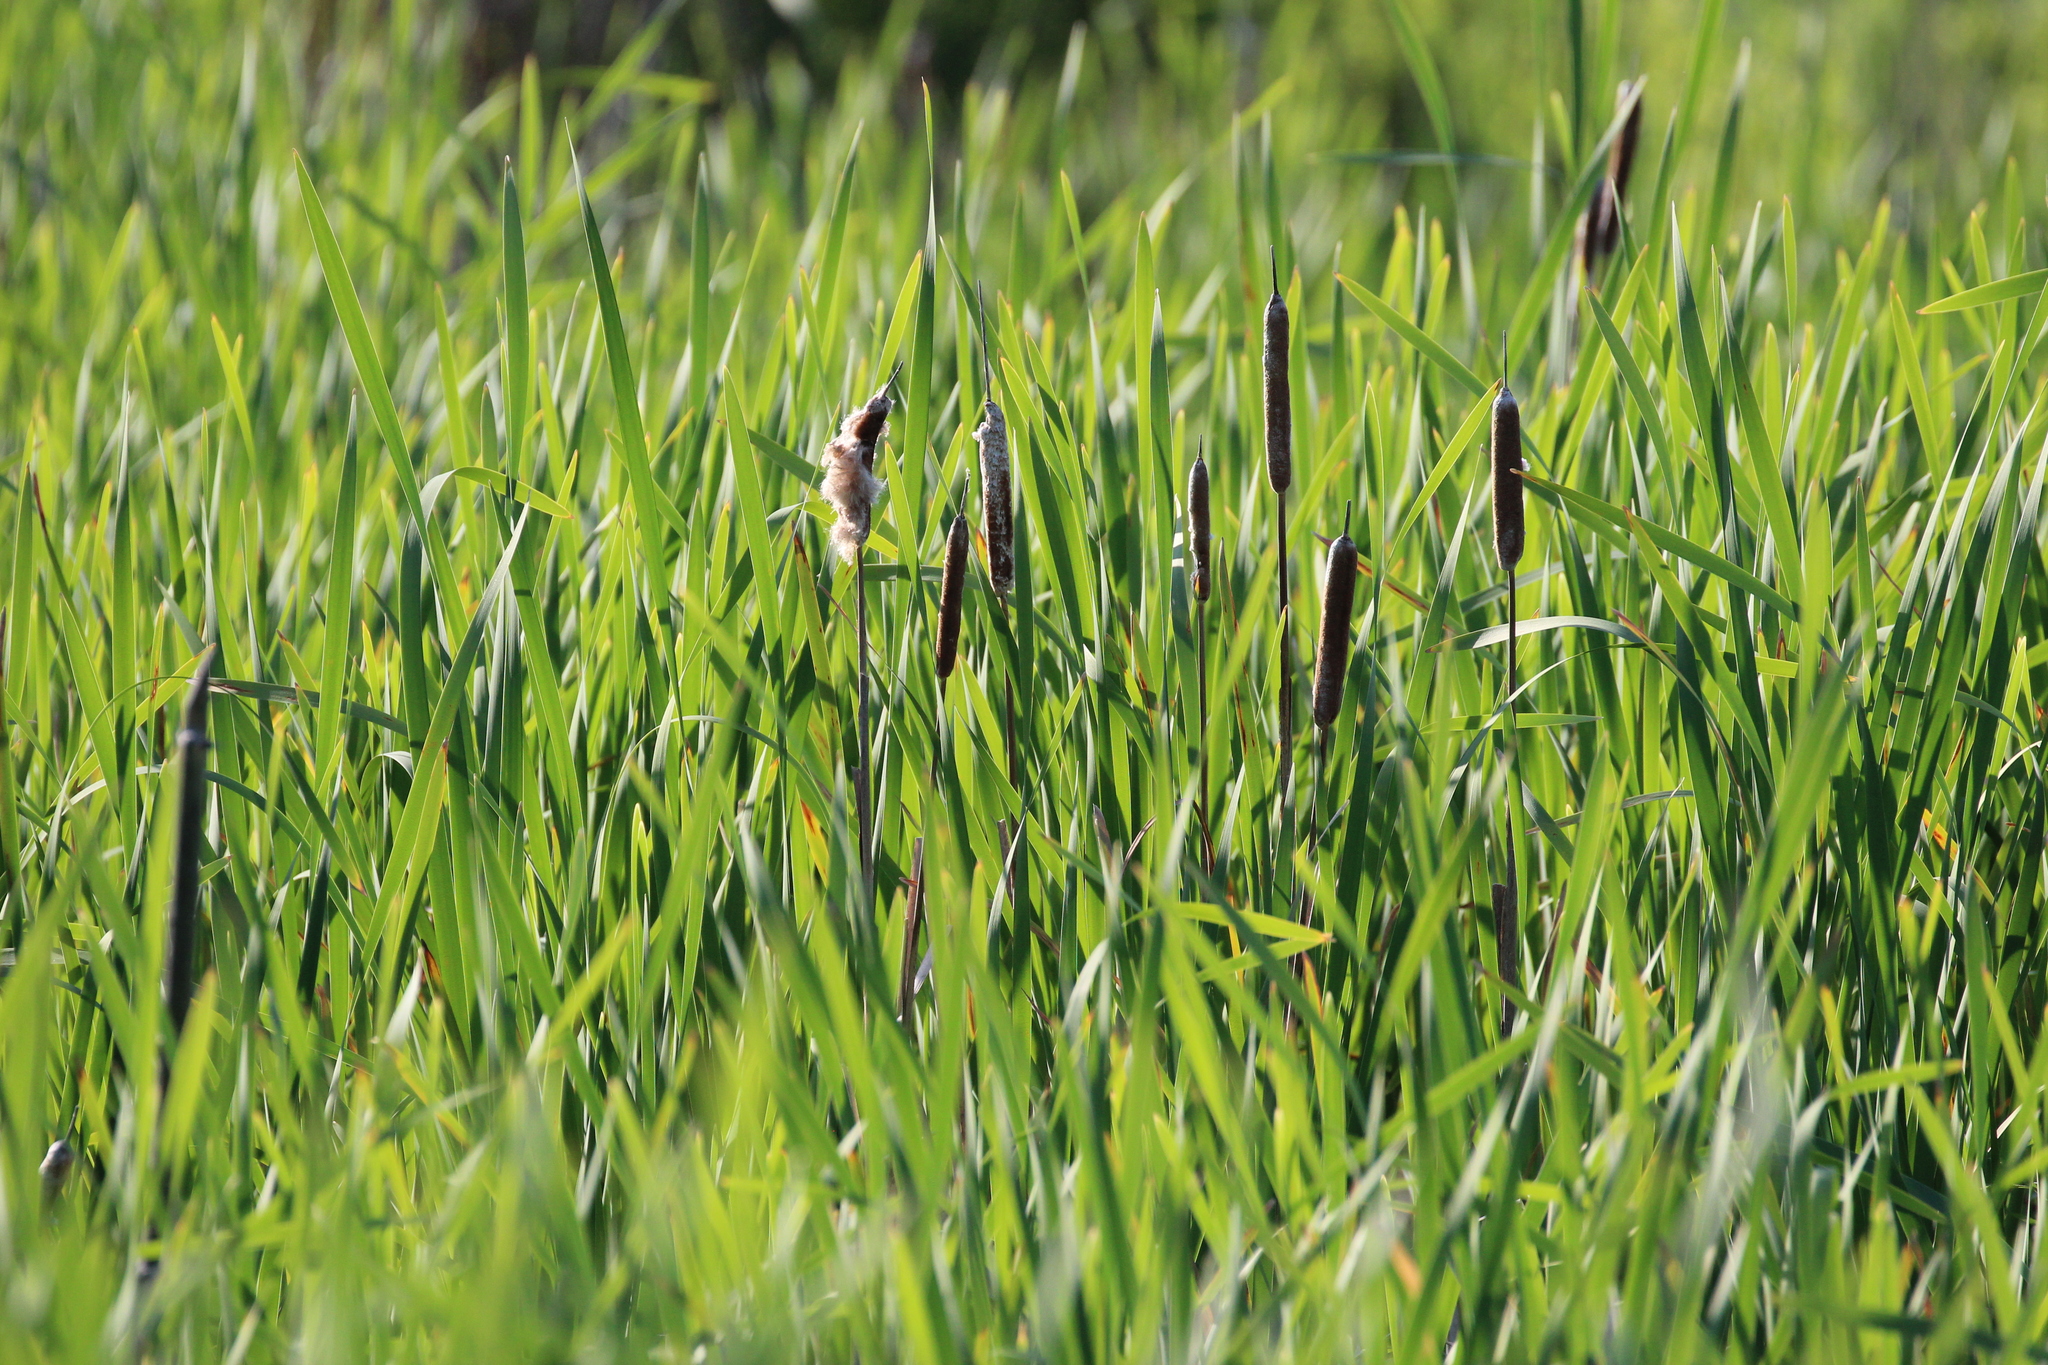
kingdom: Plantae
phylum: Tracheophyta
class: Liliopsida
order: Poales
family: Typhaceae
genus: Typha
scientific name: Typha latifolia
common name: Broadleaf cattail
